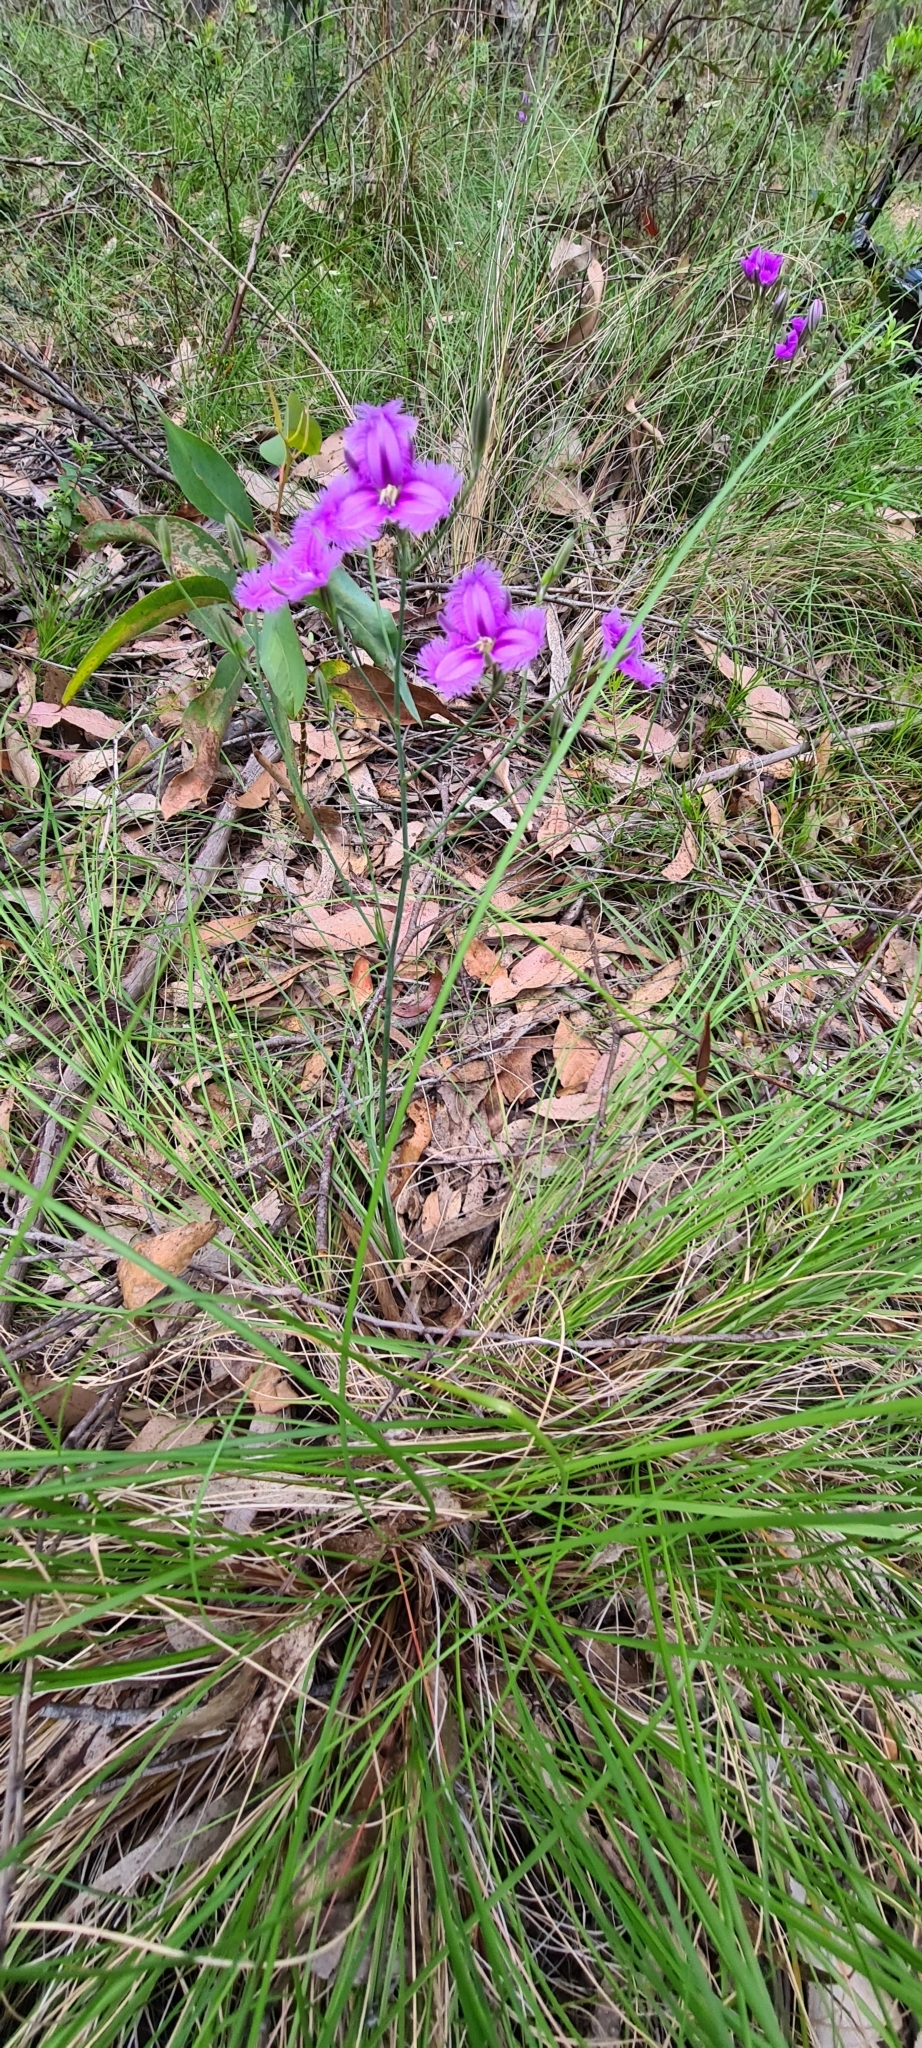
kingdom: Plantae
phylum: Tracheophyta
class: Liliopsida
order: Asparagales
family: Asparagaceae
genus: Thysanotus
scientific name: Thysanotus tuberosus
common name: Common fringed-lily
